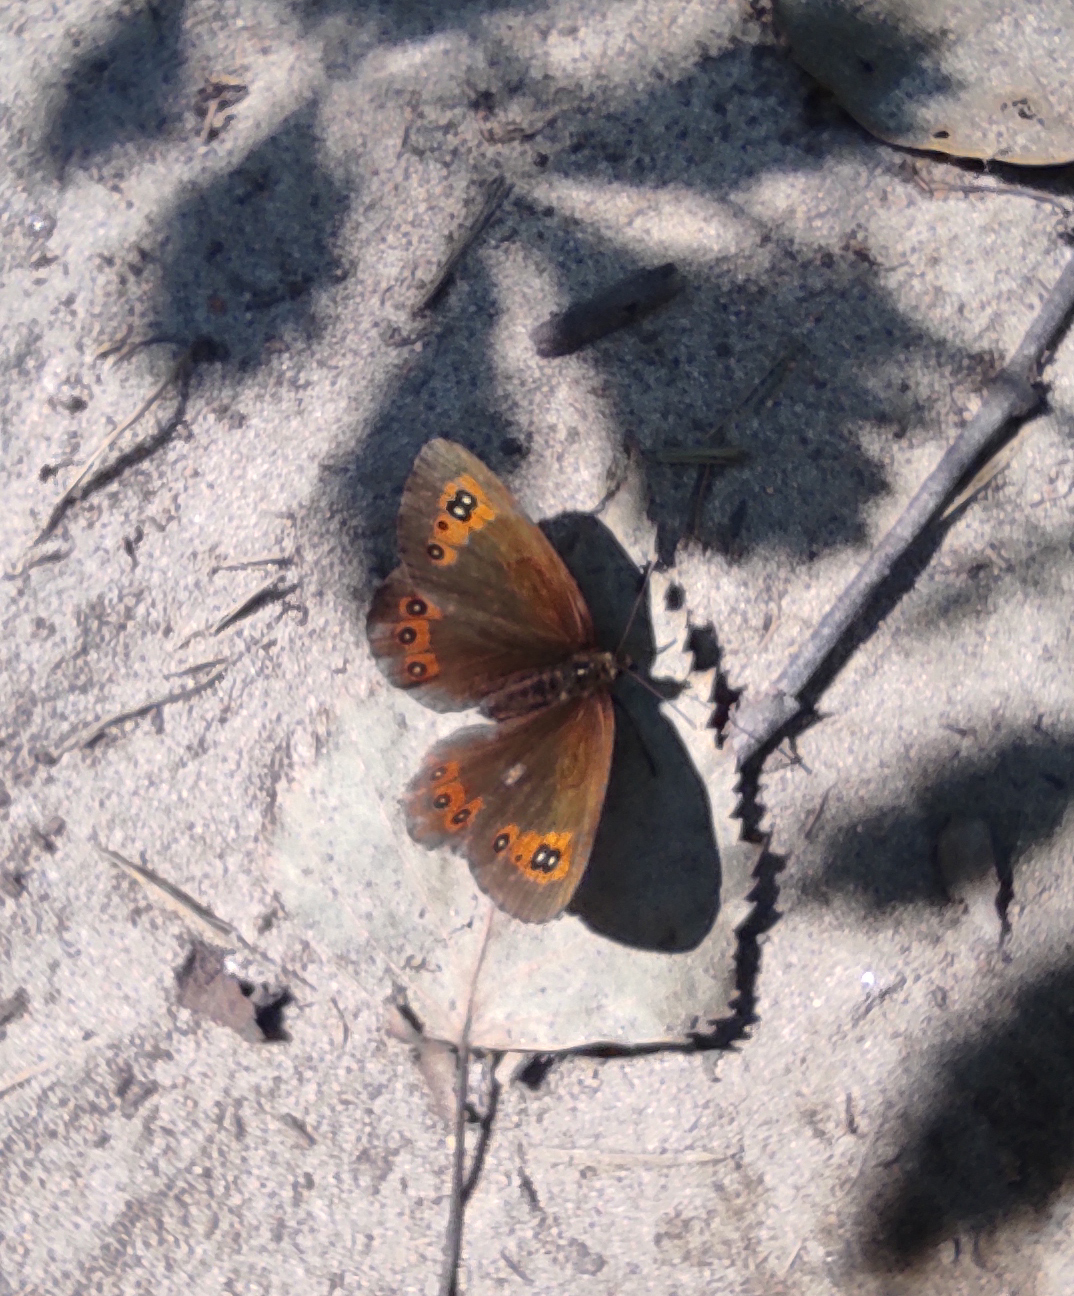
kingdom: Animalia
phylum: Arthropoda
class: Insecta
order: Lepidoptera
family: Nymphalidae
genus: Erebia
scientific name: Erebia aethiops
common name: Scotch argus
